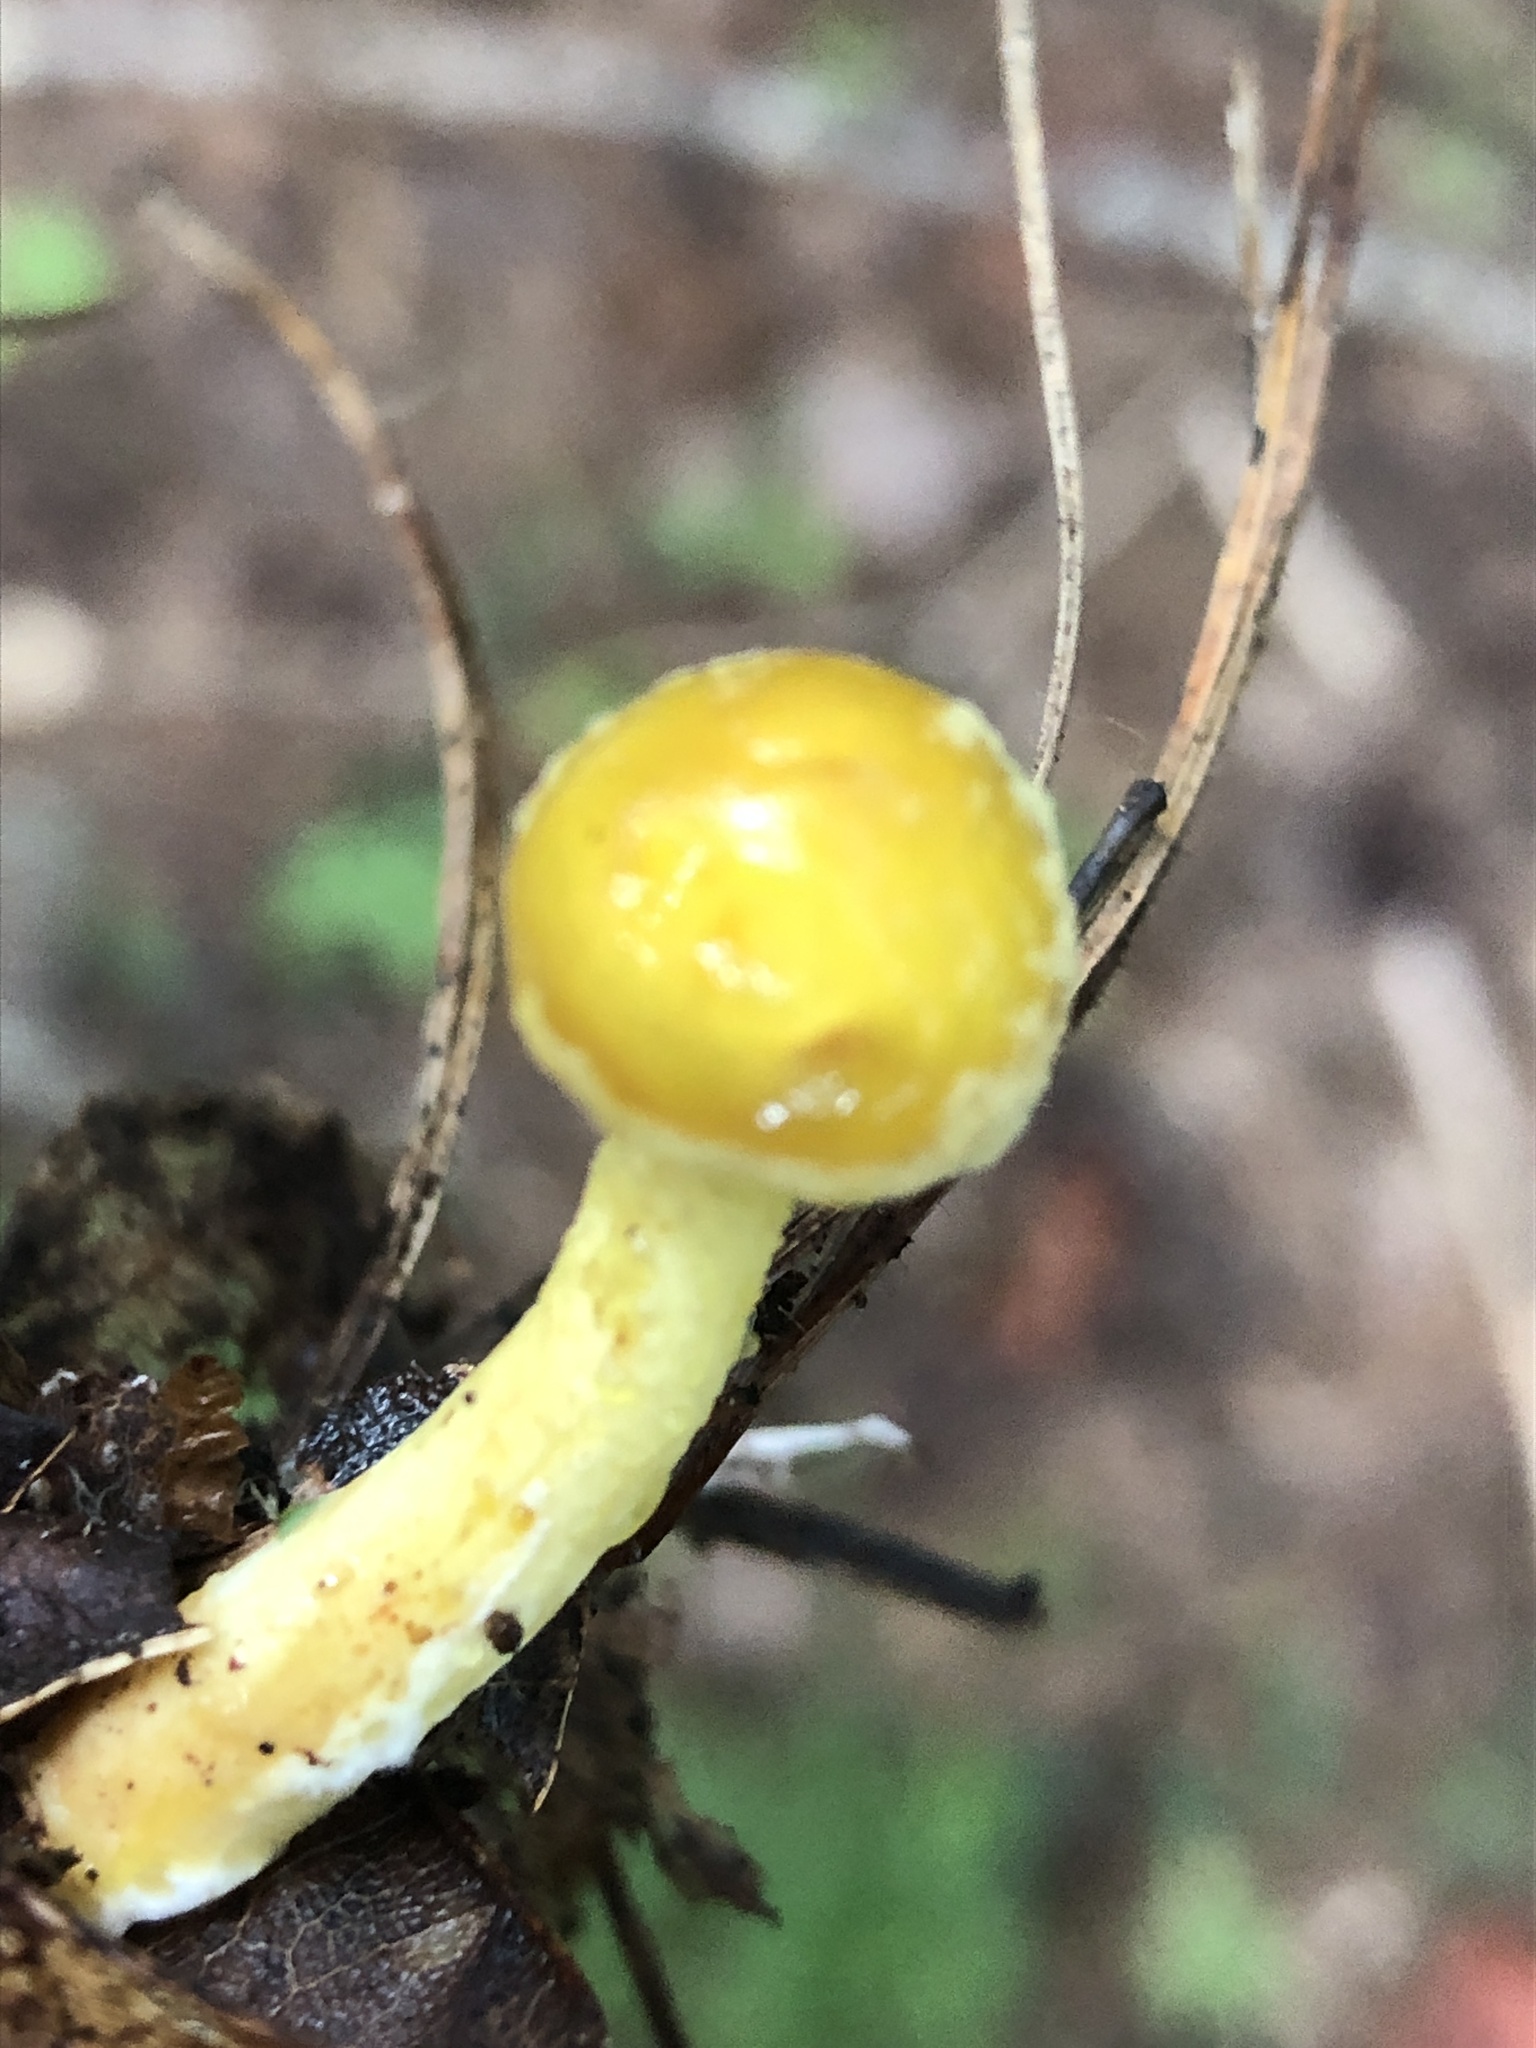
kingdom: Fungi
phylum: Basidiomycota
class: Agaricomycetes
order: Boletales
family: Suillaceae
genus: Suillus
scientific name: Suillus americanus
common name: Chicken fat mushroom
